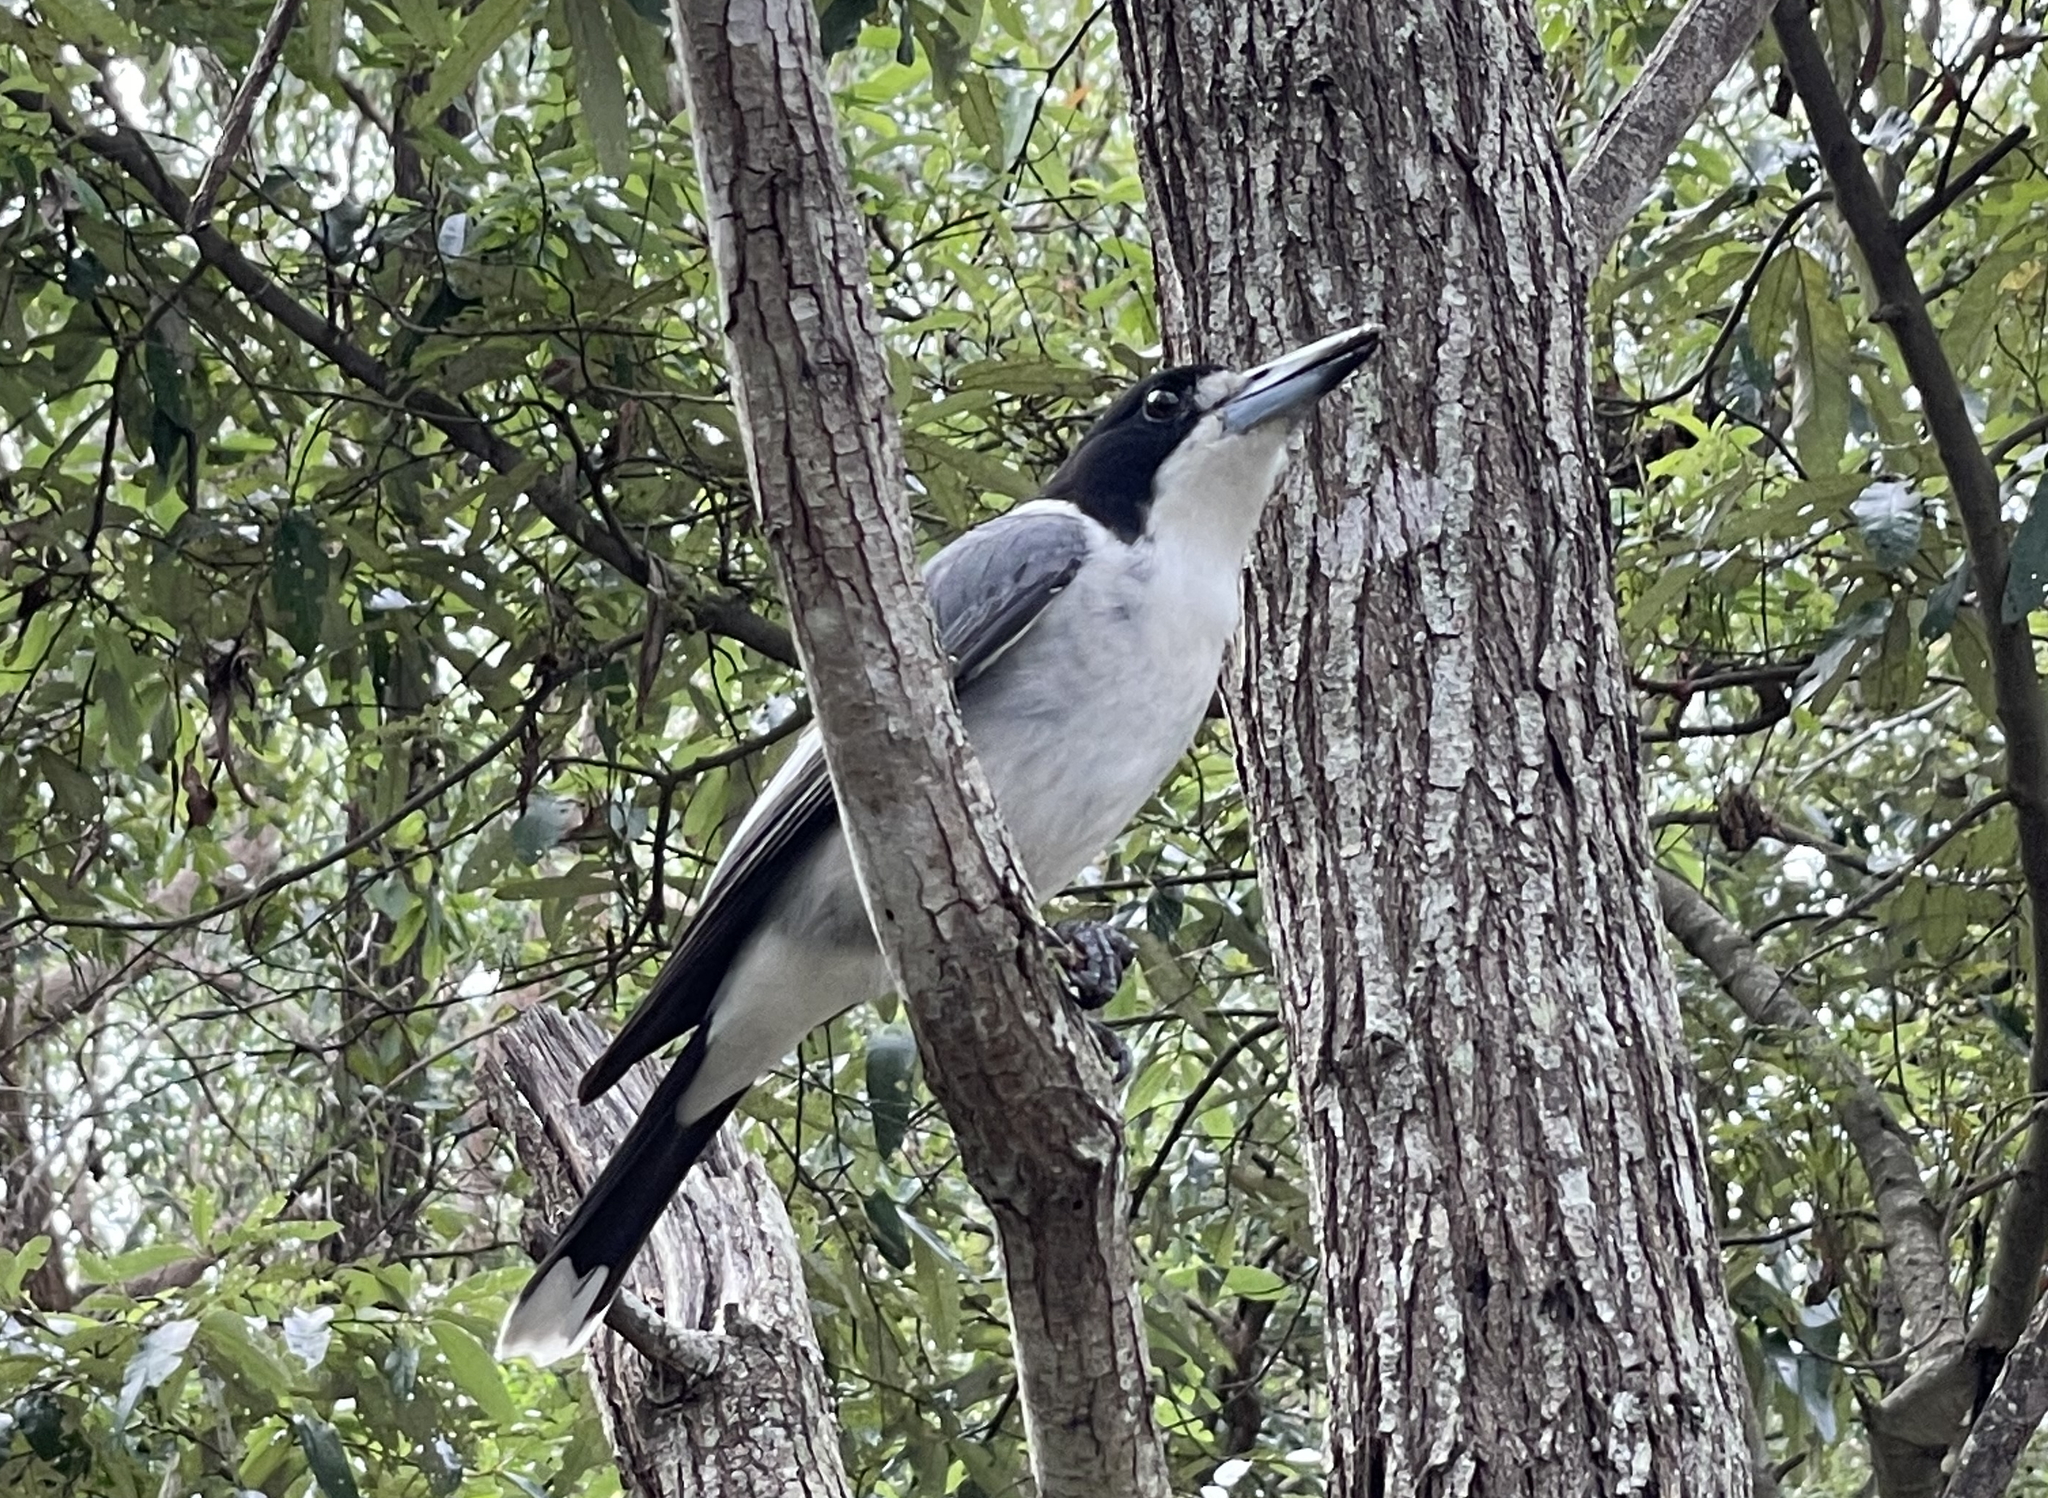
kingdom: Animalia
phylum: Chordata
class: Aves
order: Passeriformes
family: Cracticidae
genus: Cracticus
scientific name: Cracticus torquatus
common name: Grey butcherbird
